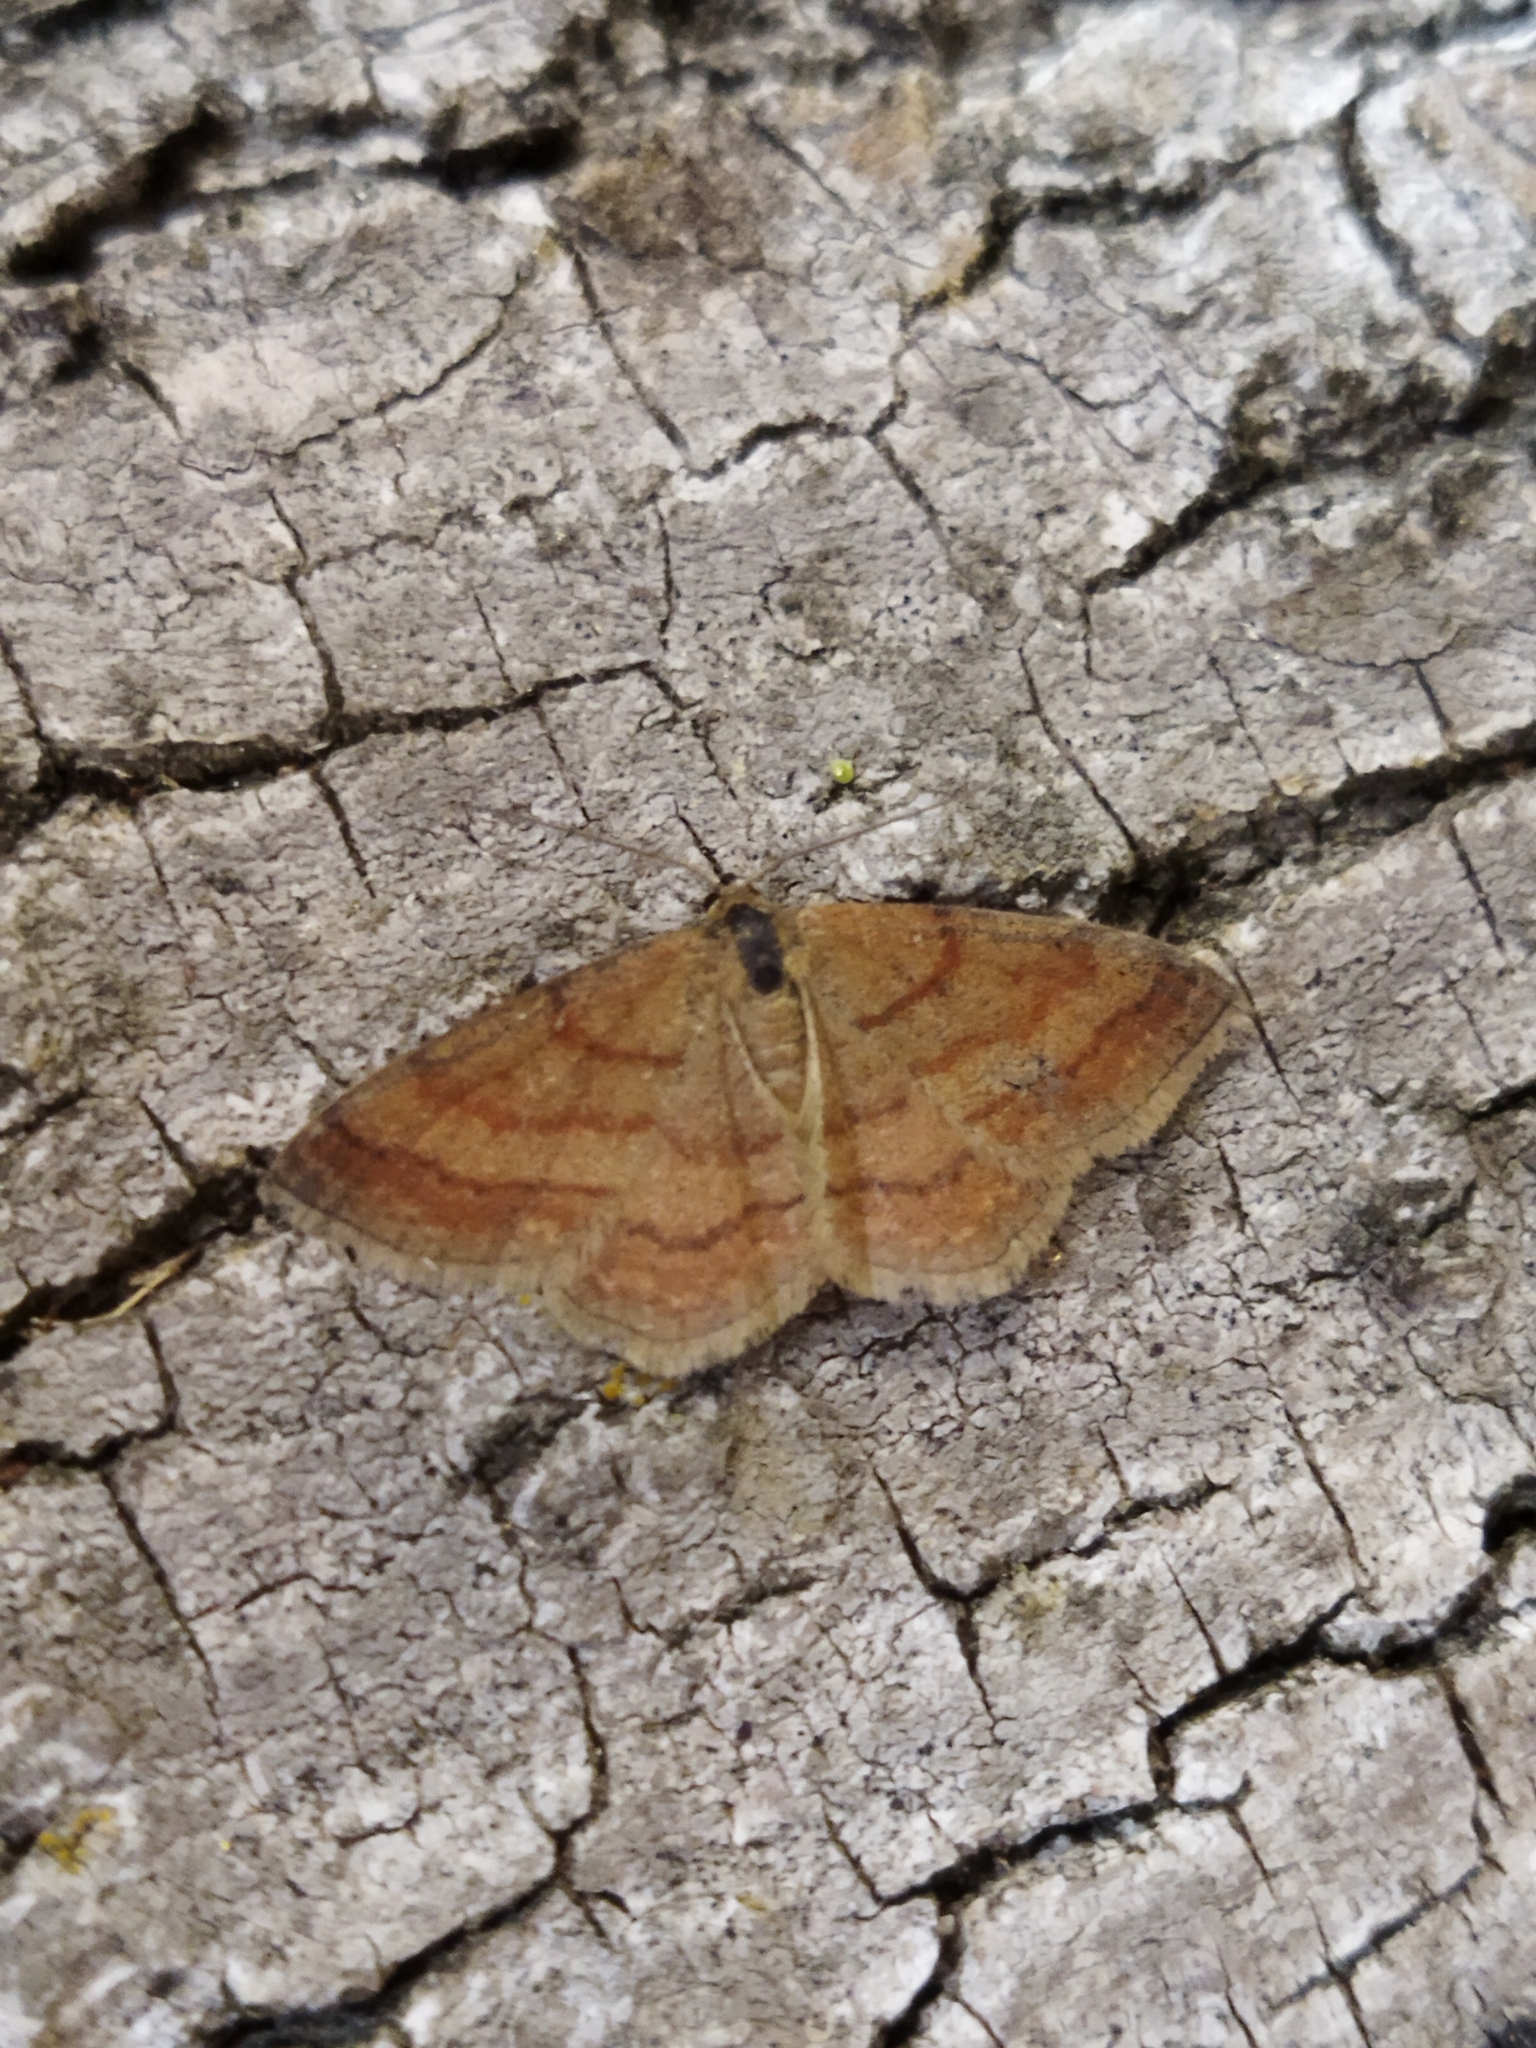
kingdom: Animalia
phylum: Arthropoda
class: Insecta
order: Lepidoptera
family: Geometridae
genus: Scopula
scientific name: Scopula rubiginata
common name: Tawny wave
